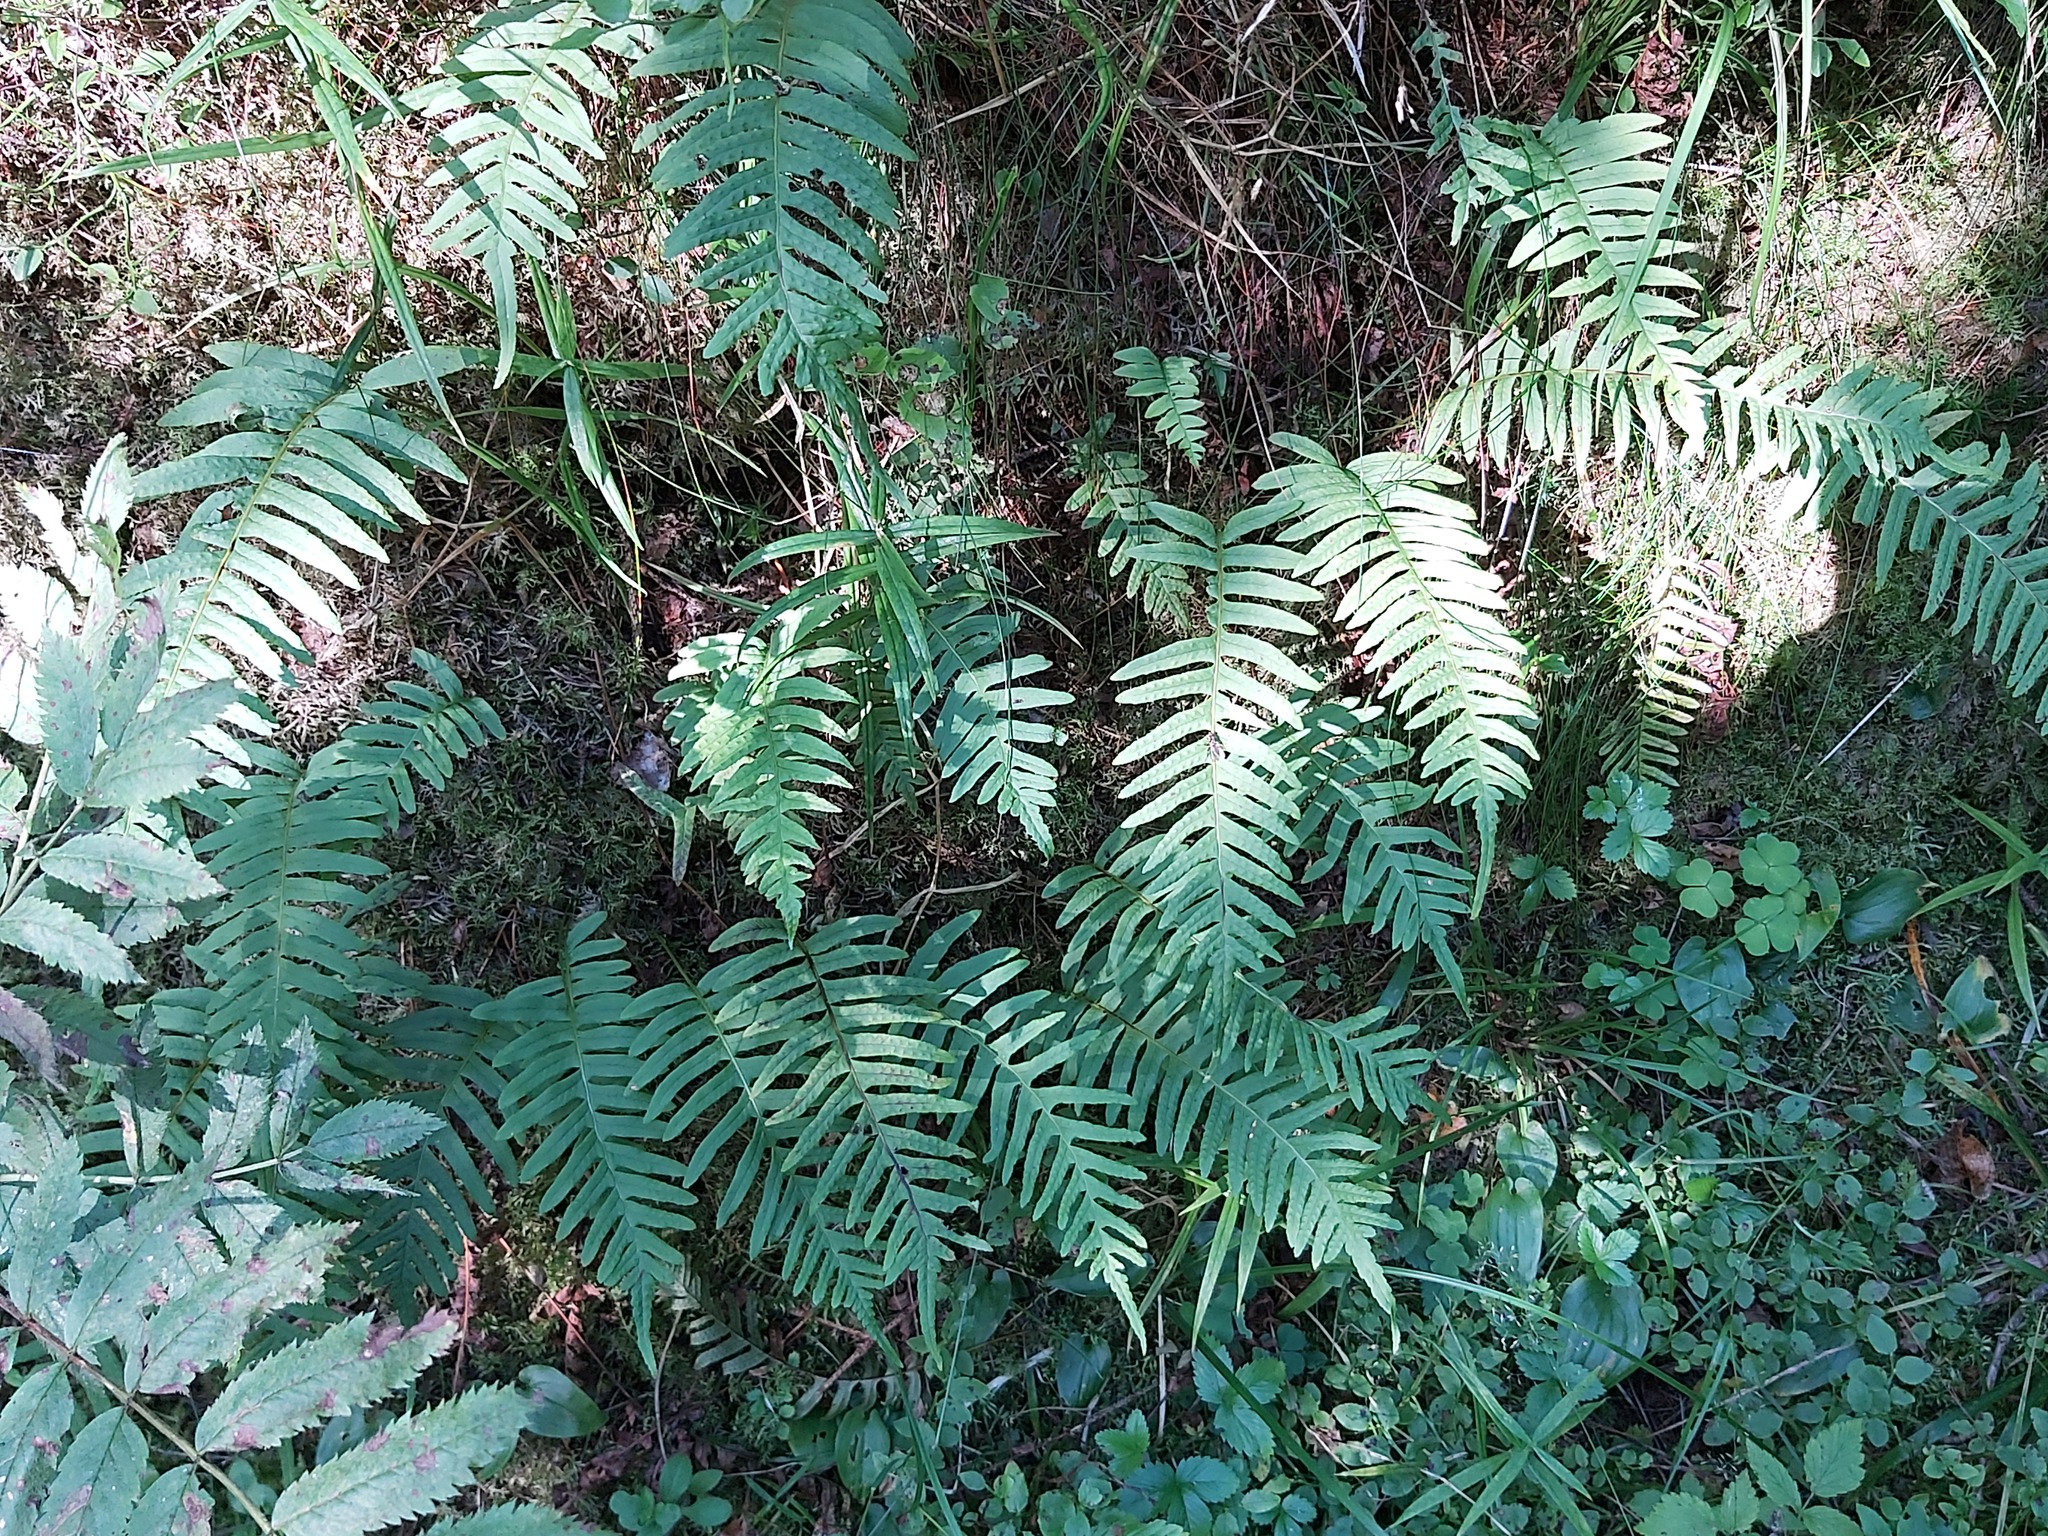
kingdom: Plantae
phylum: Tracheophyta
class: Polypodiopsida
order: Polypodiales
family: Polypodiaceae
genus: Polypodium
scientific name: Polypodium vulgare
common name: Common polypody
